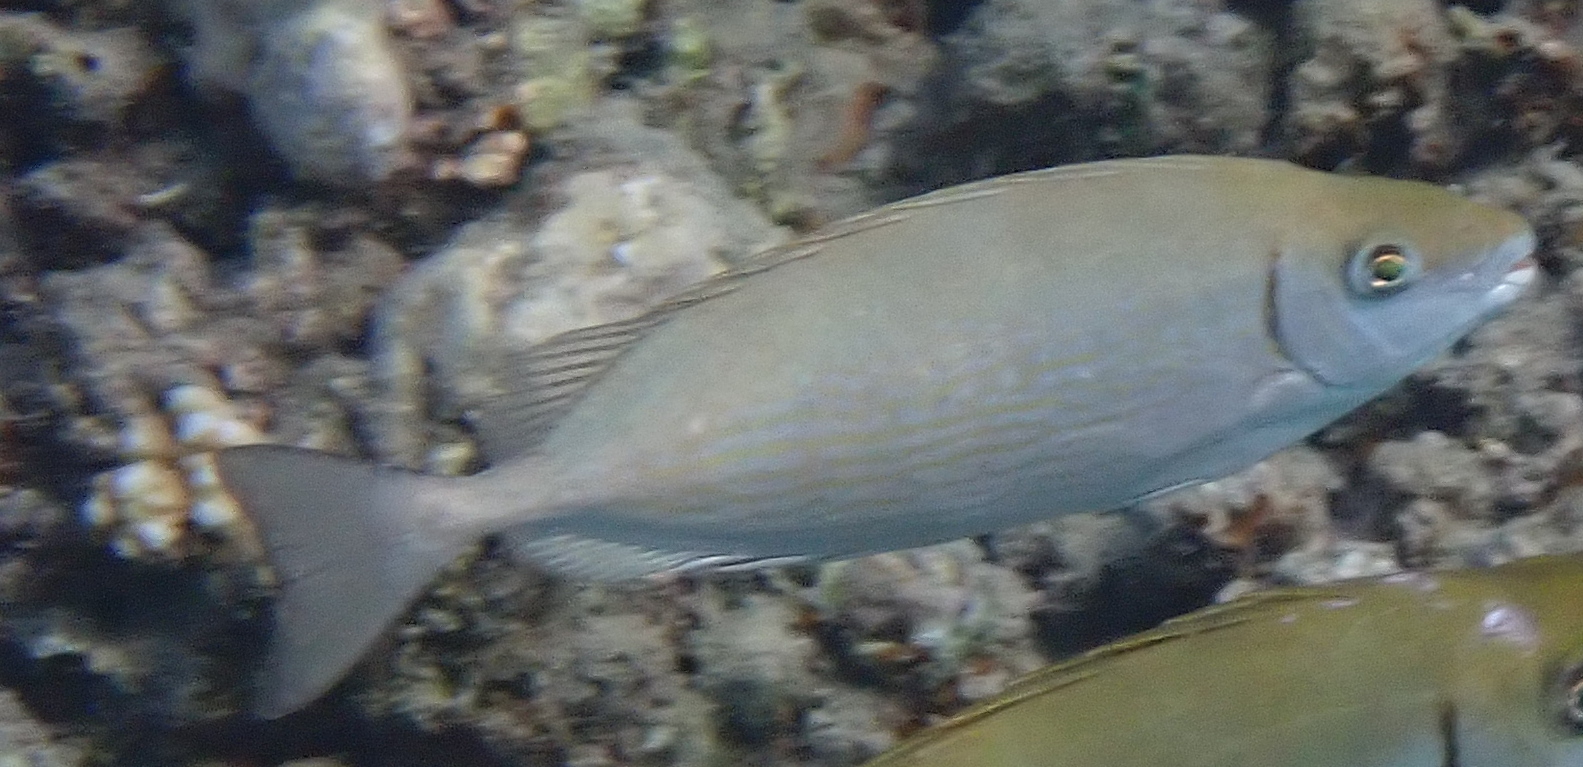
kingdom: Animalia
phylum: Chordata
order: Perciformes
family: Siganidae
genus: Siganus
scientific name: Siganus rivulatus
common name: Marbled spinefoot
